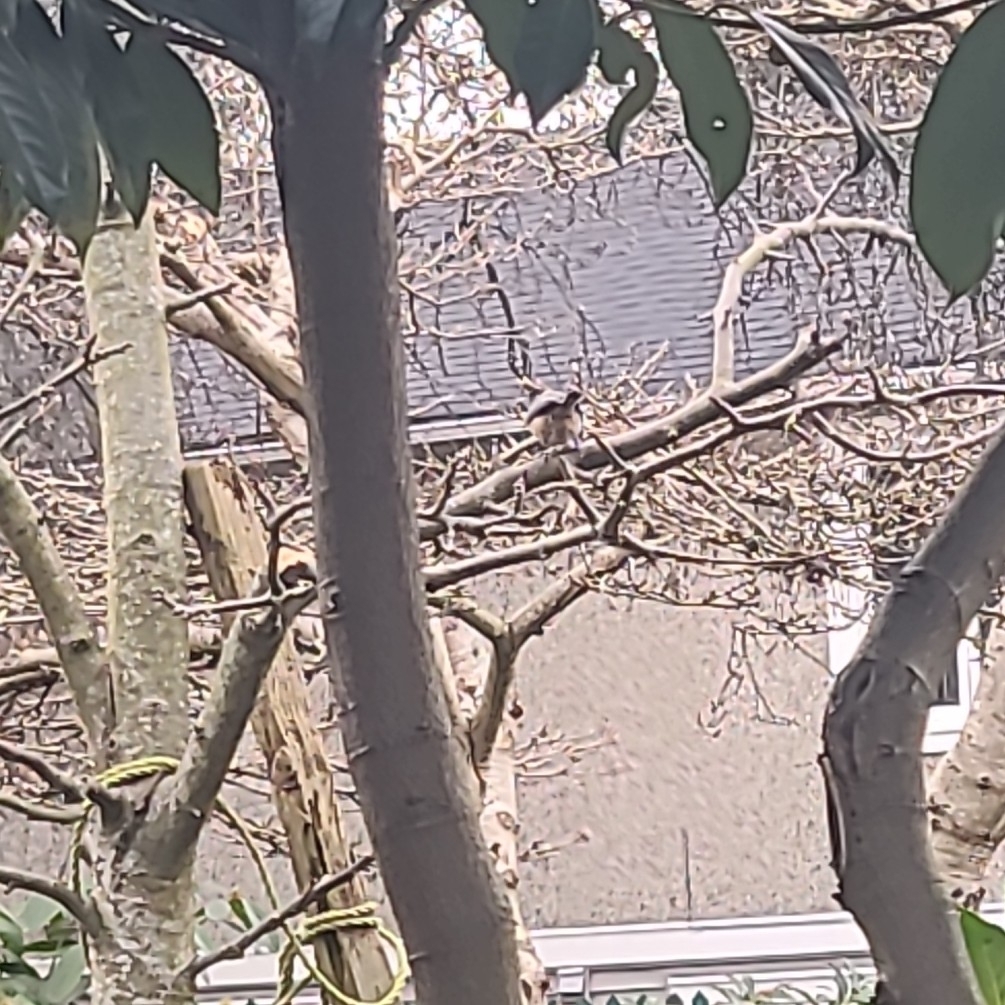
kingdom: Animalia
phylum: Chordata
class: Aves
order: Passeriformes
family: Paridae
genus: Poecile
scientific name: Poecile atricapillus
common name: Black-capped chickadee
